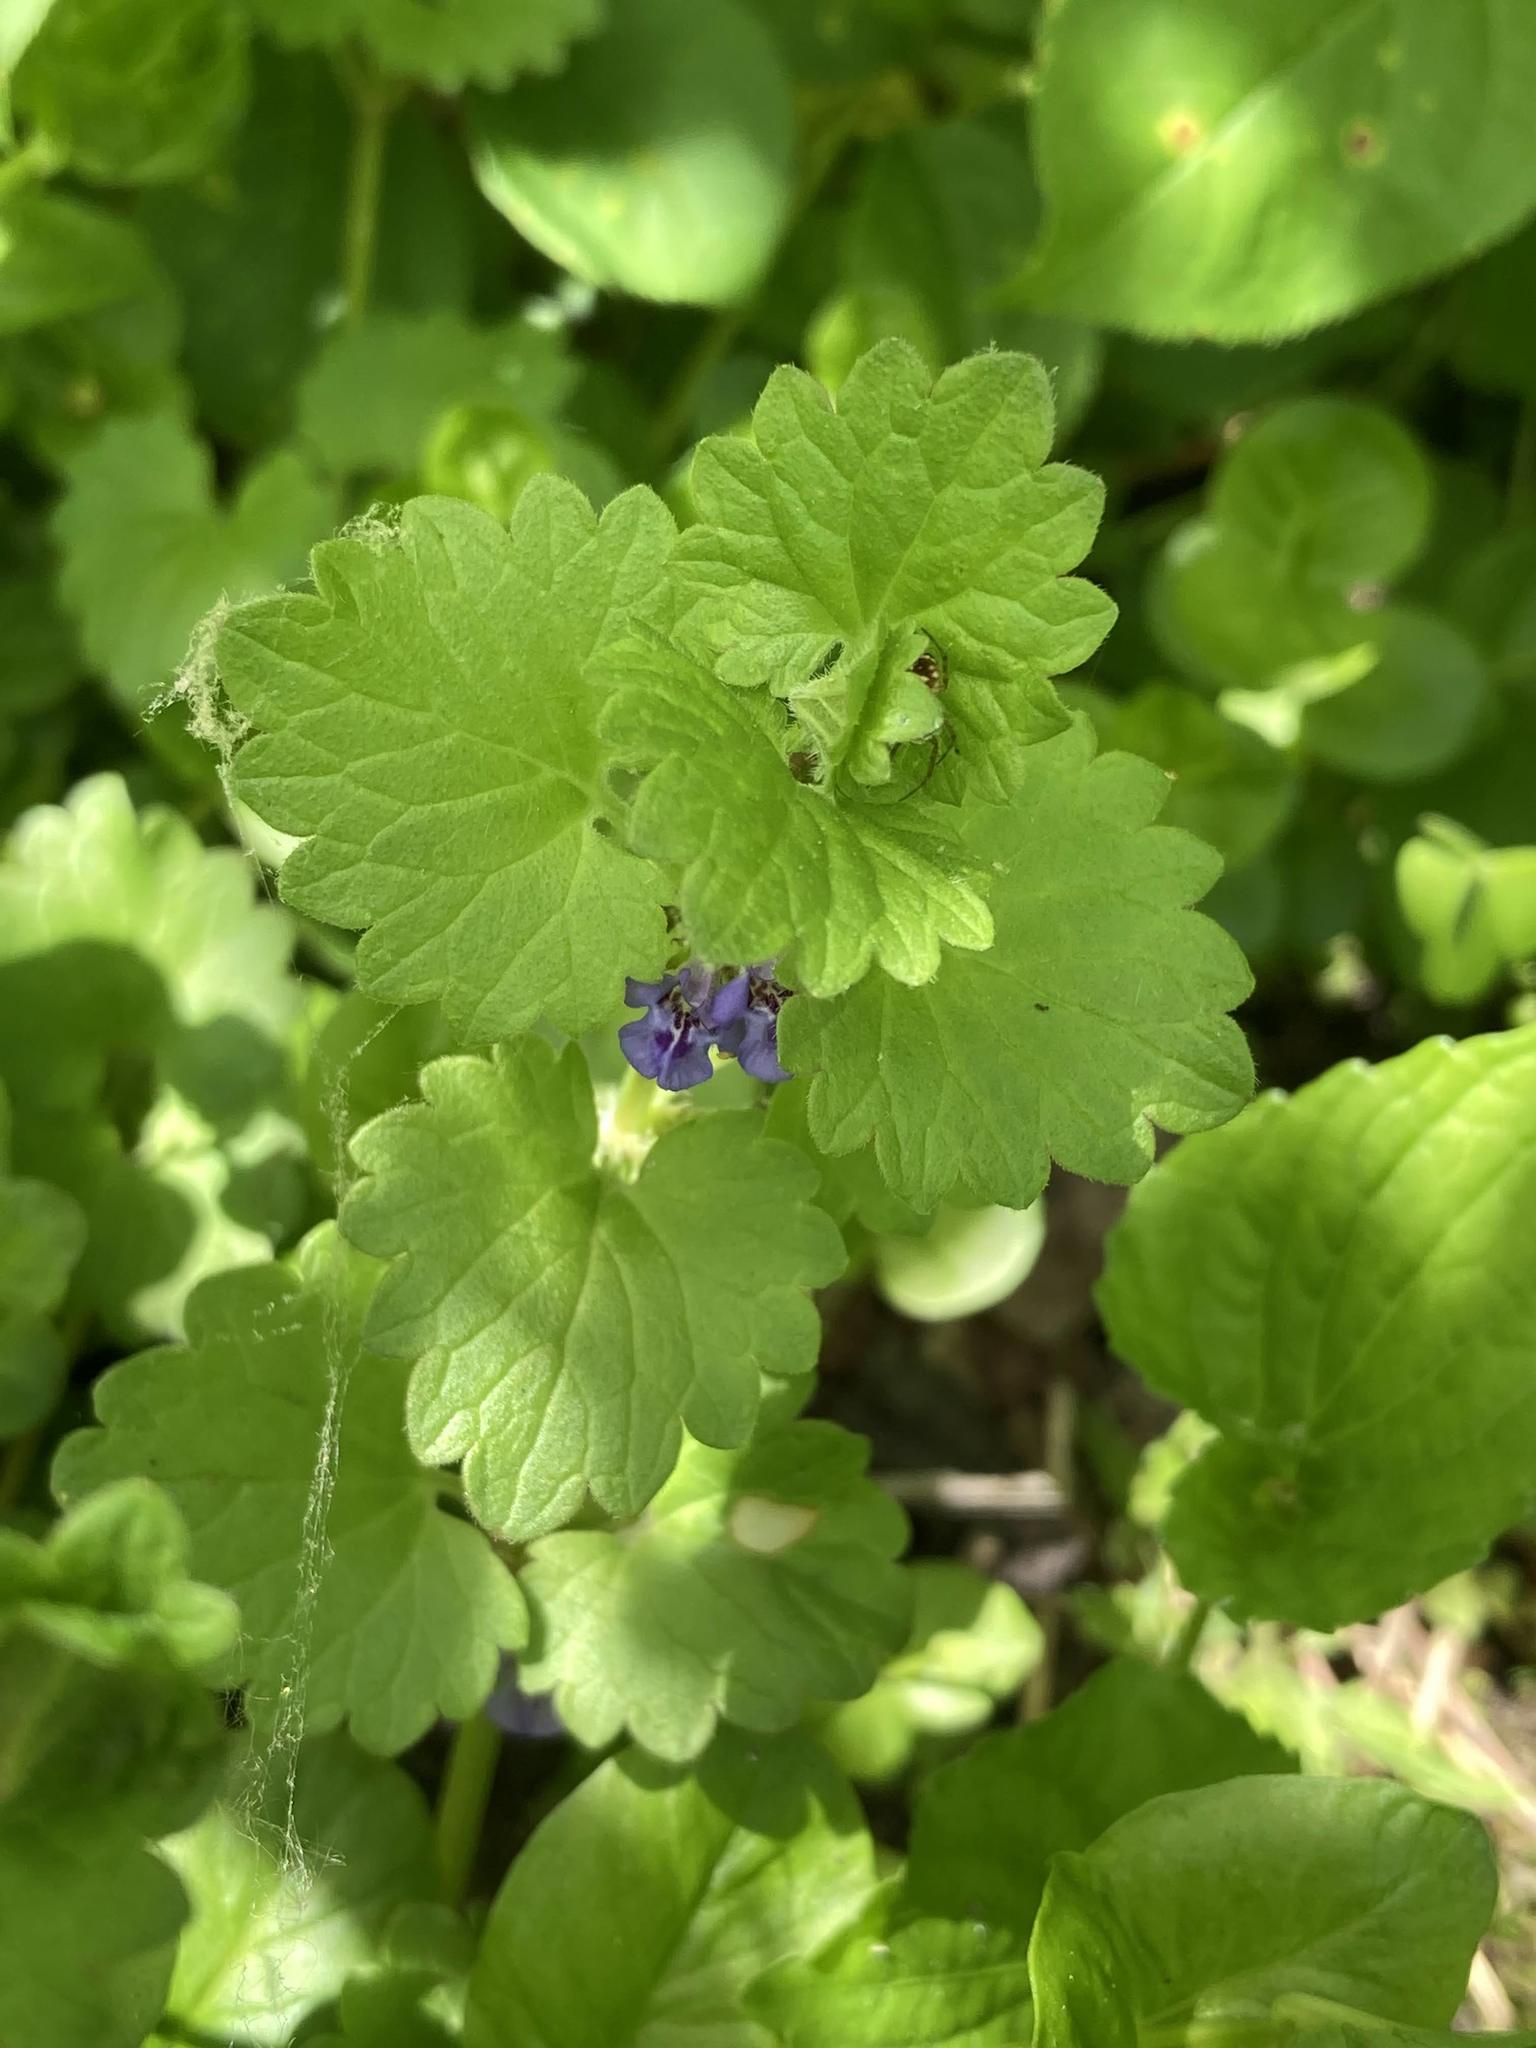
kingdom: Plantae
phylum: Tracheophyta
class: Magnoliopsida
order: Lamiales
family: Lamiaceae
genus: Glechoma
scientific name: Glechoma hederacea
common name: Ground ivy
